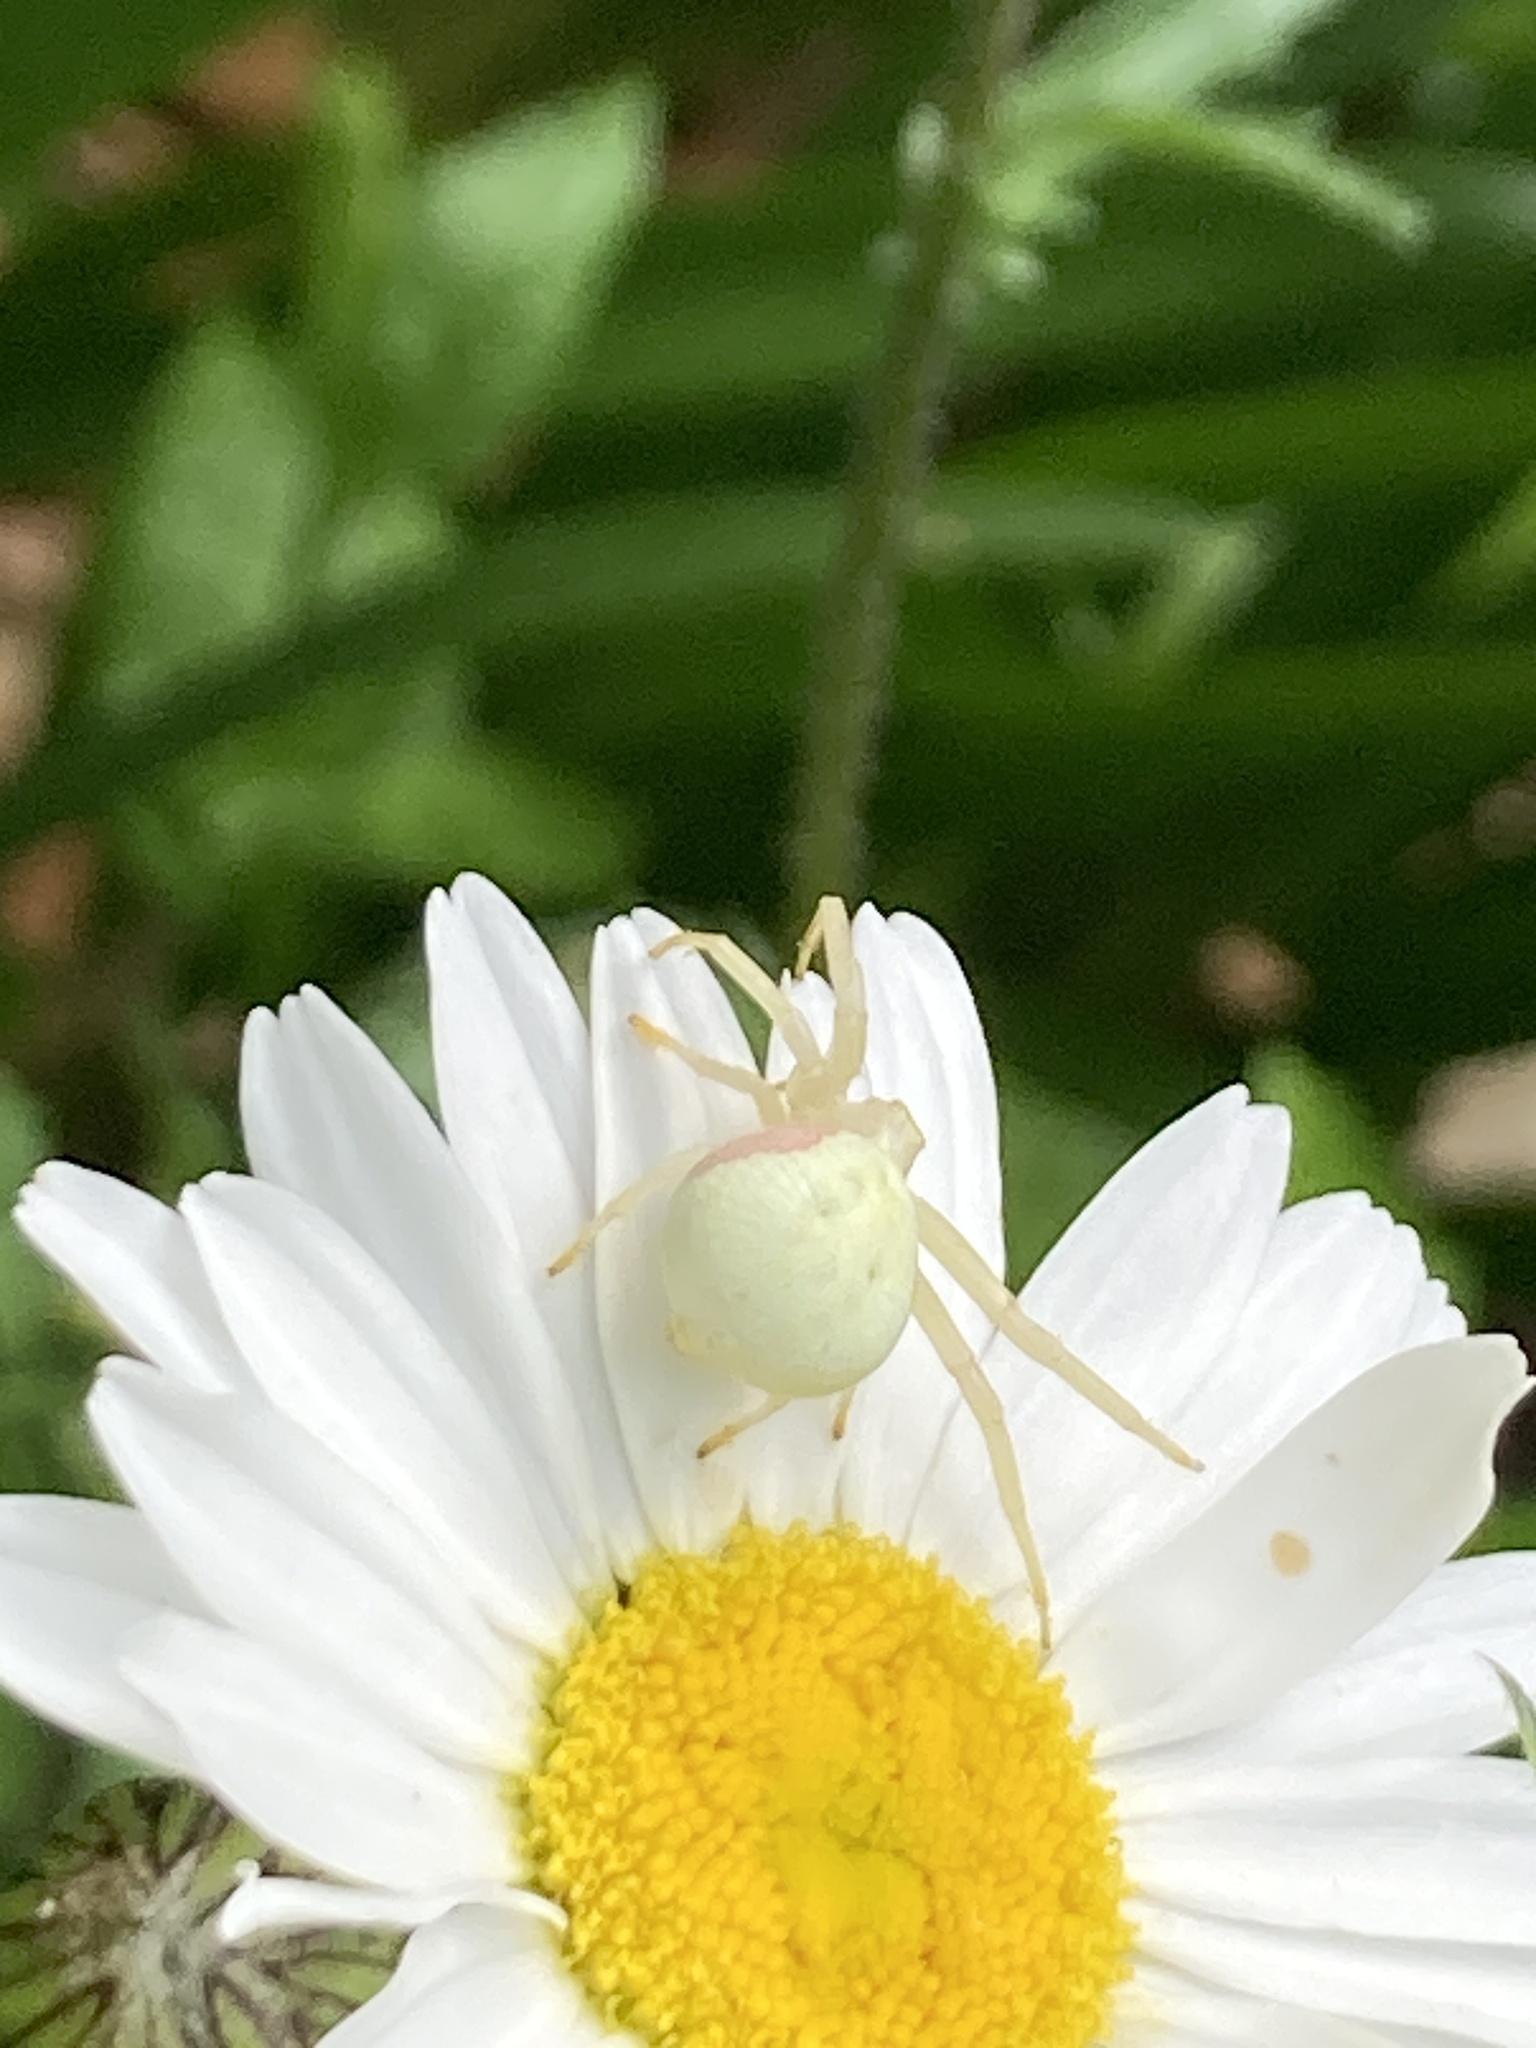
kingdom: Animalia
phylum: Arthropoda
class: Arachnida
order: Araneae
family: Thomisidae
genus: Misumena
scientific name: Misumena vatia
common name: Goldenrod crab spider
